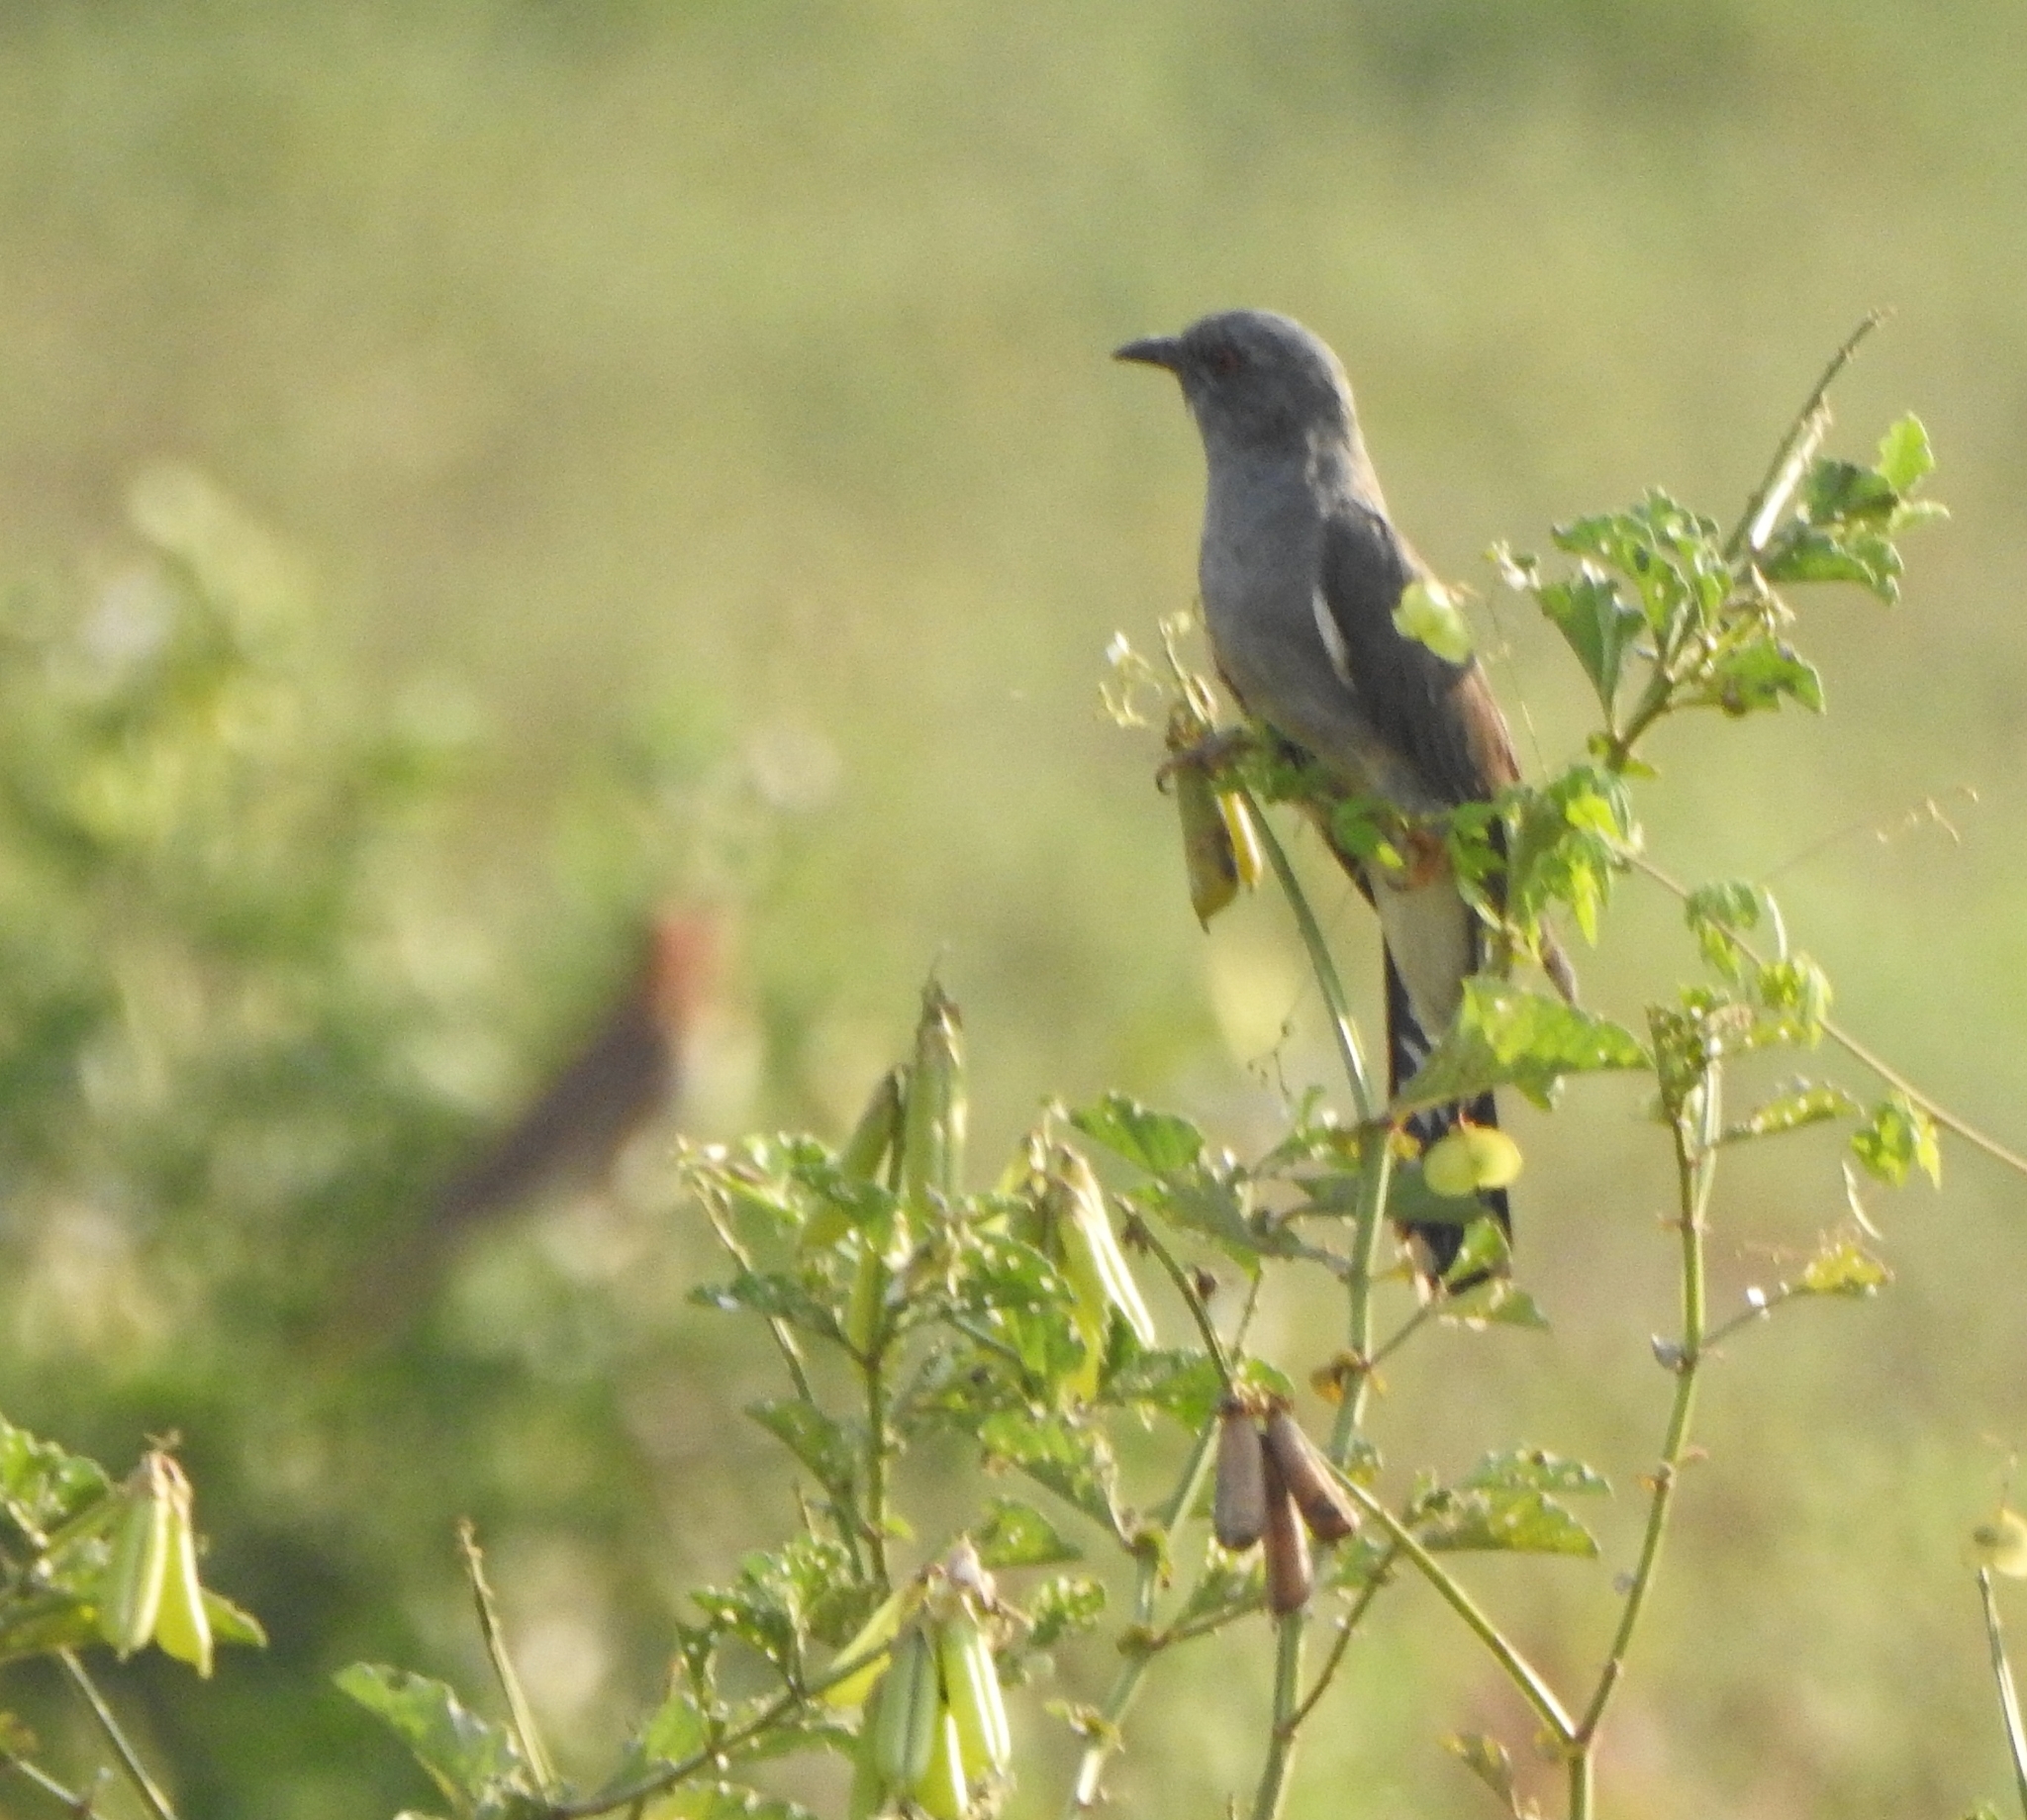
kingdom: Animalia
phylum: Chordata
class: Aves
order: Cuculiformes
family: Cuculidae
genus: Cacomantis
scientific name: Cacomantis passerinus
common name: Grey-bellied cuckoo
